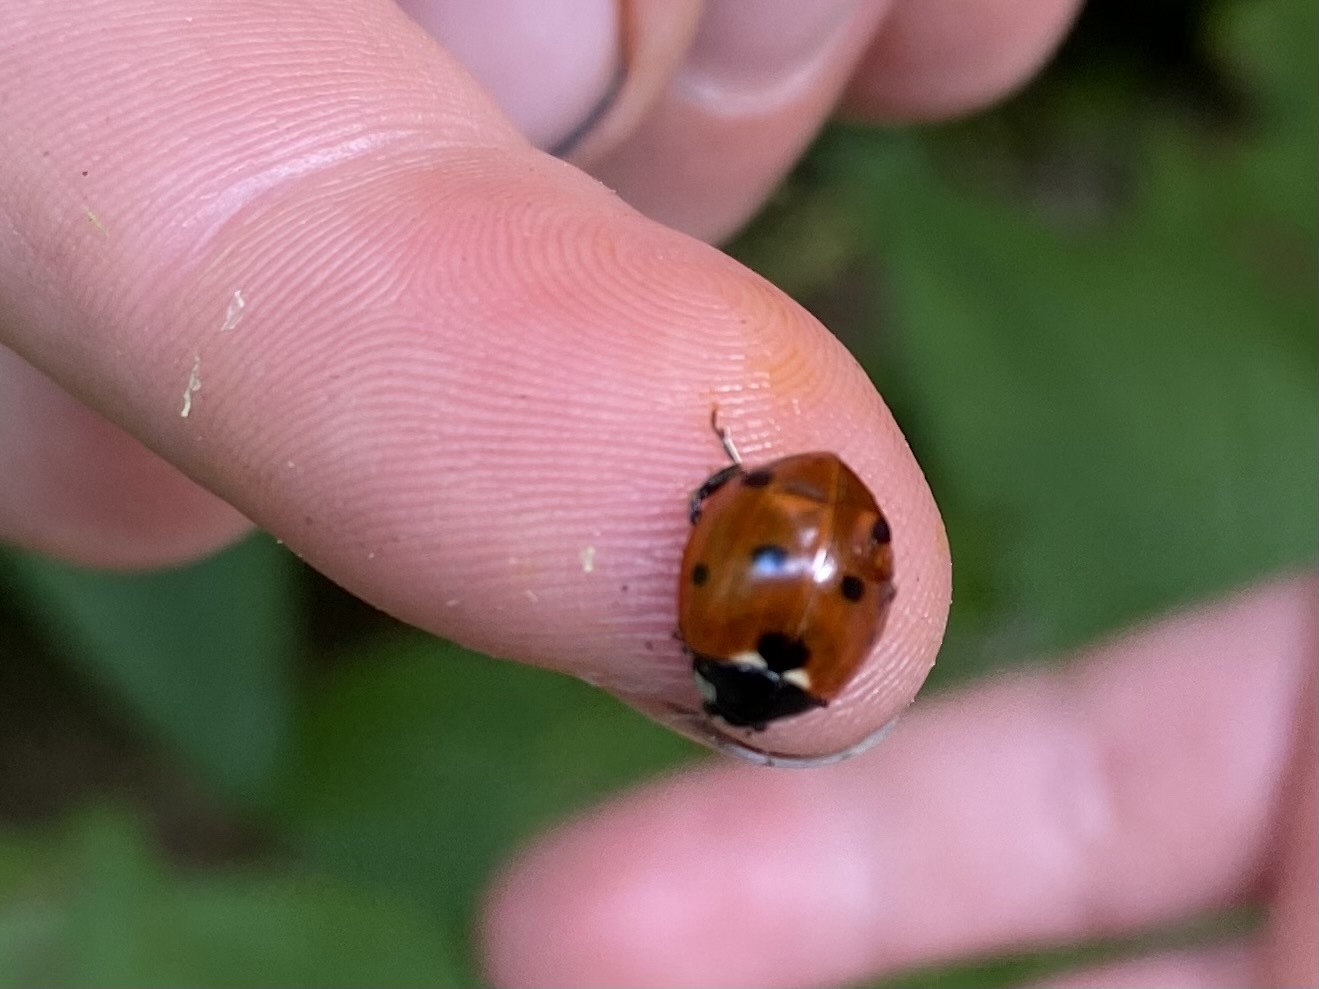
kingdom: Animalia
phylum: Arthropoda
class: Insecta
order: Coleoptera
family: Coccinellidae
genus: Coccinella
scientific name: Coccinella septempunctata
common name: Sevenspotted lady beetle
